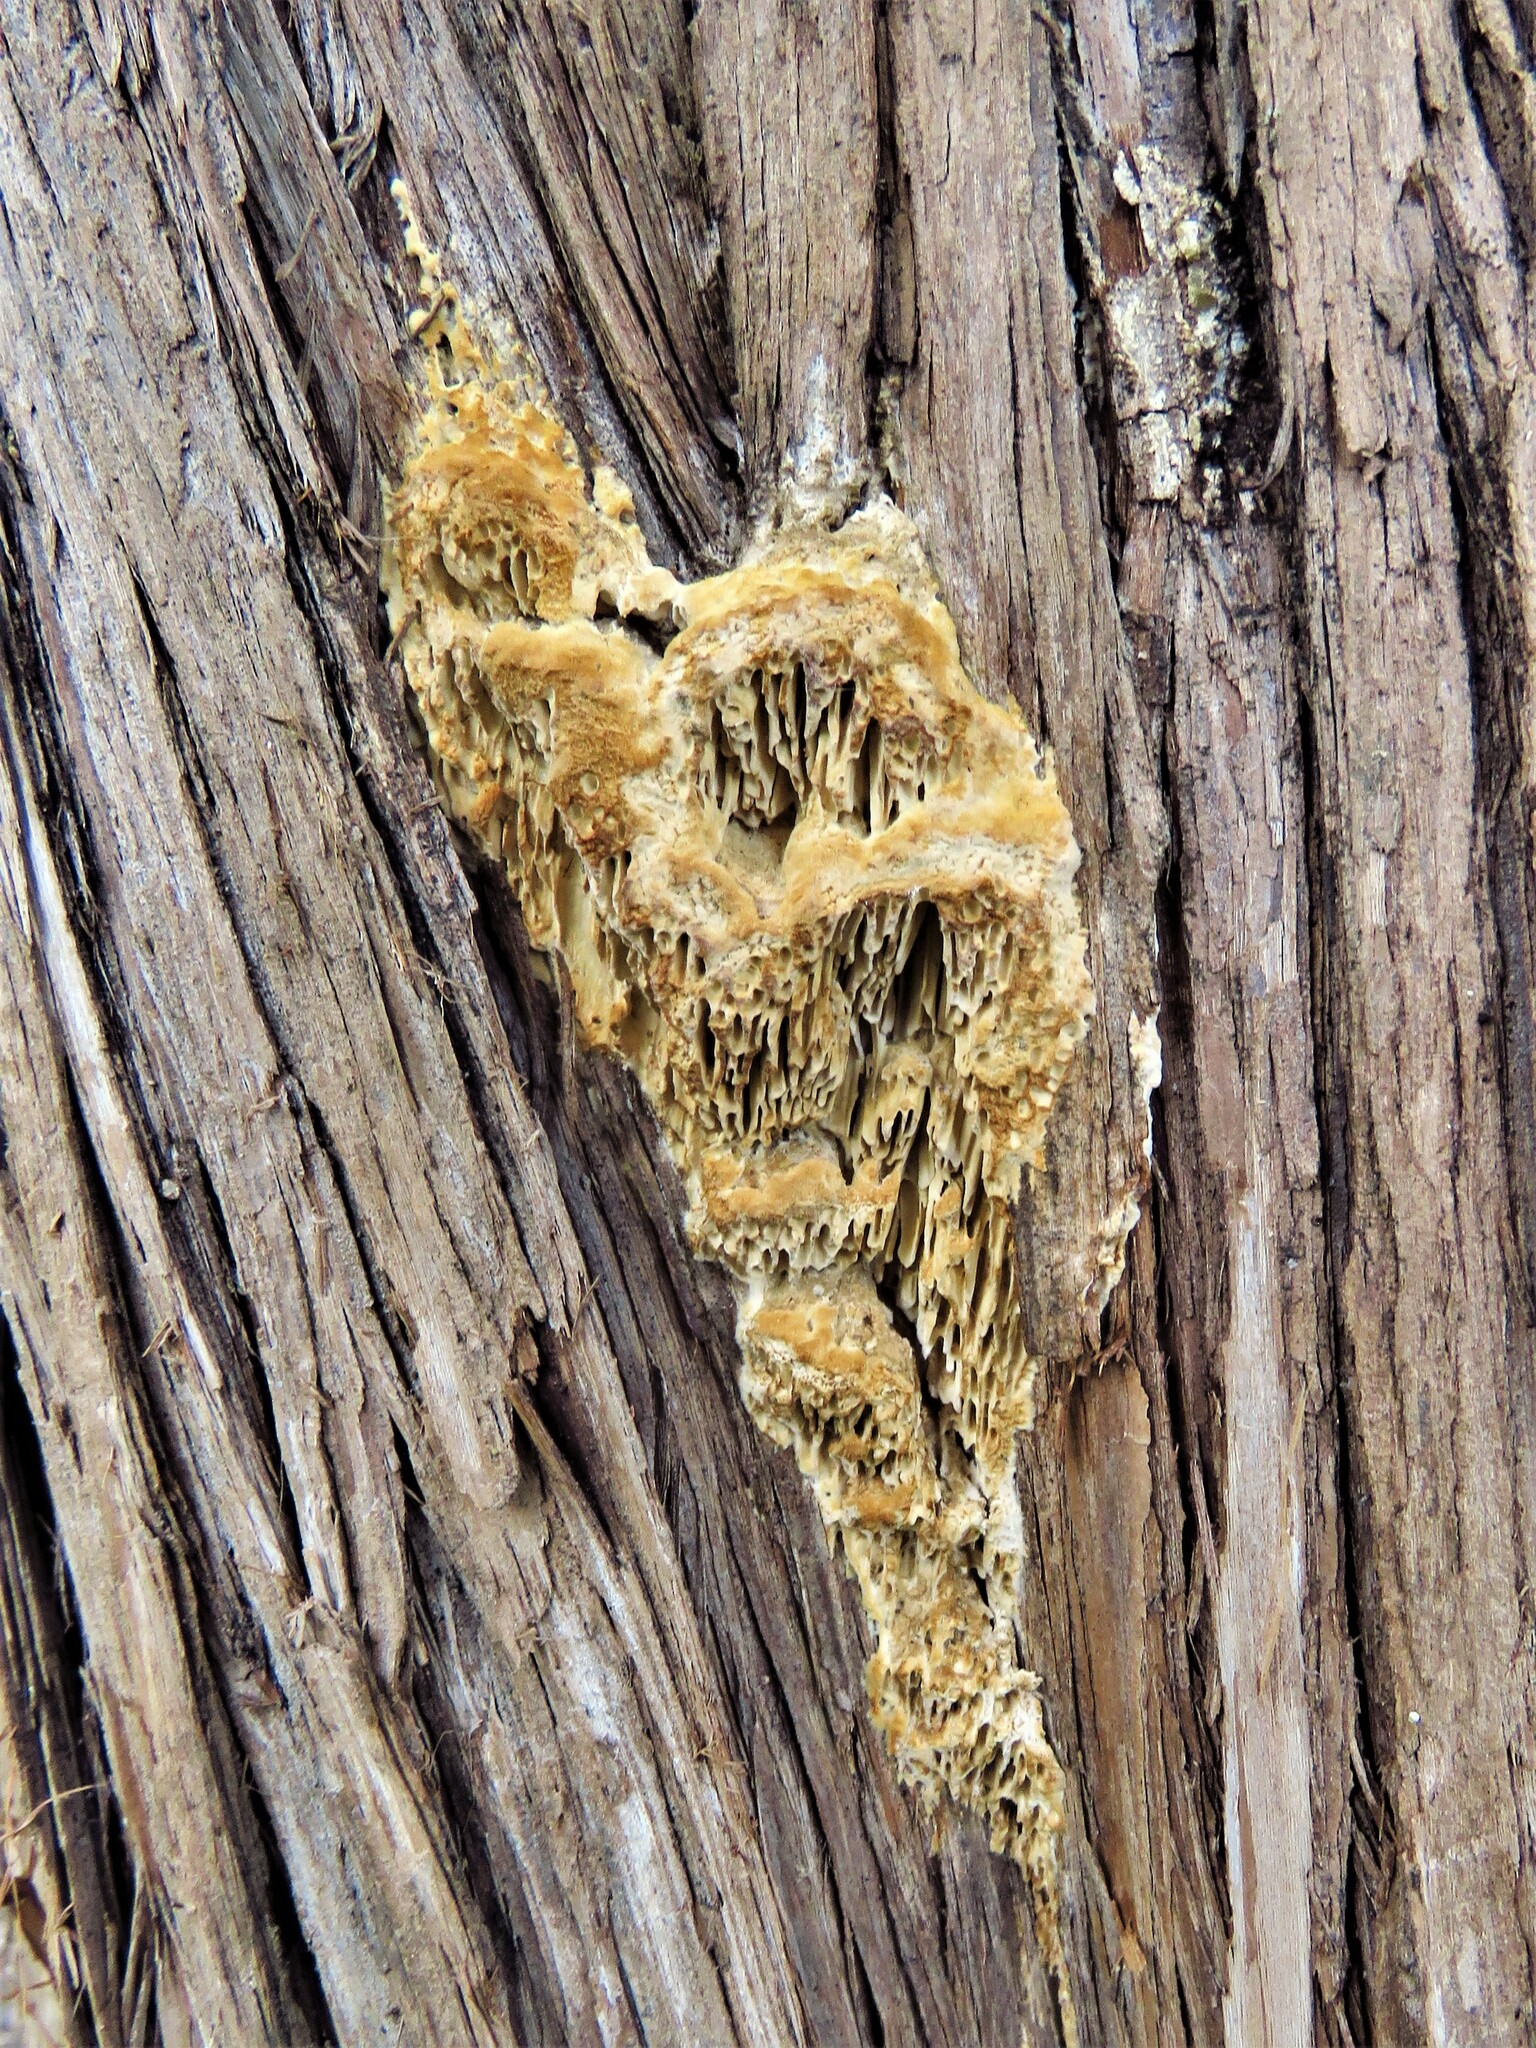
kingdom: Fungi
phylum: Basidiomycota
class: Agaricomycetes
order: Polyporales
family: Fomitopsidaceae
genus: Fomitopsis
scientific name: Fomitopsis
